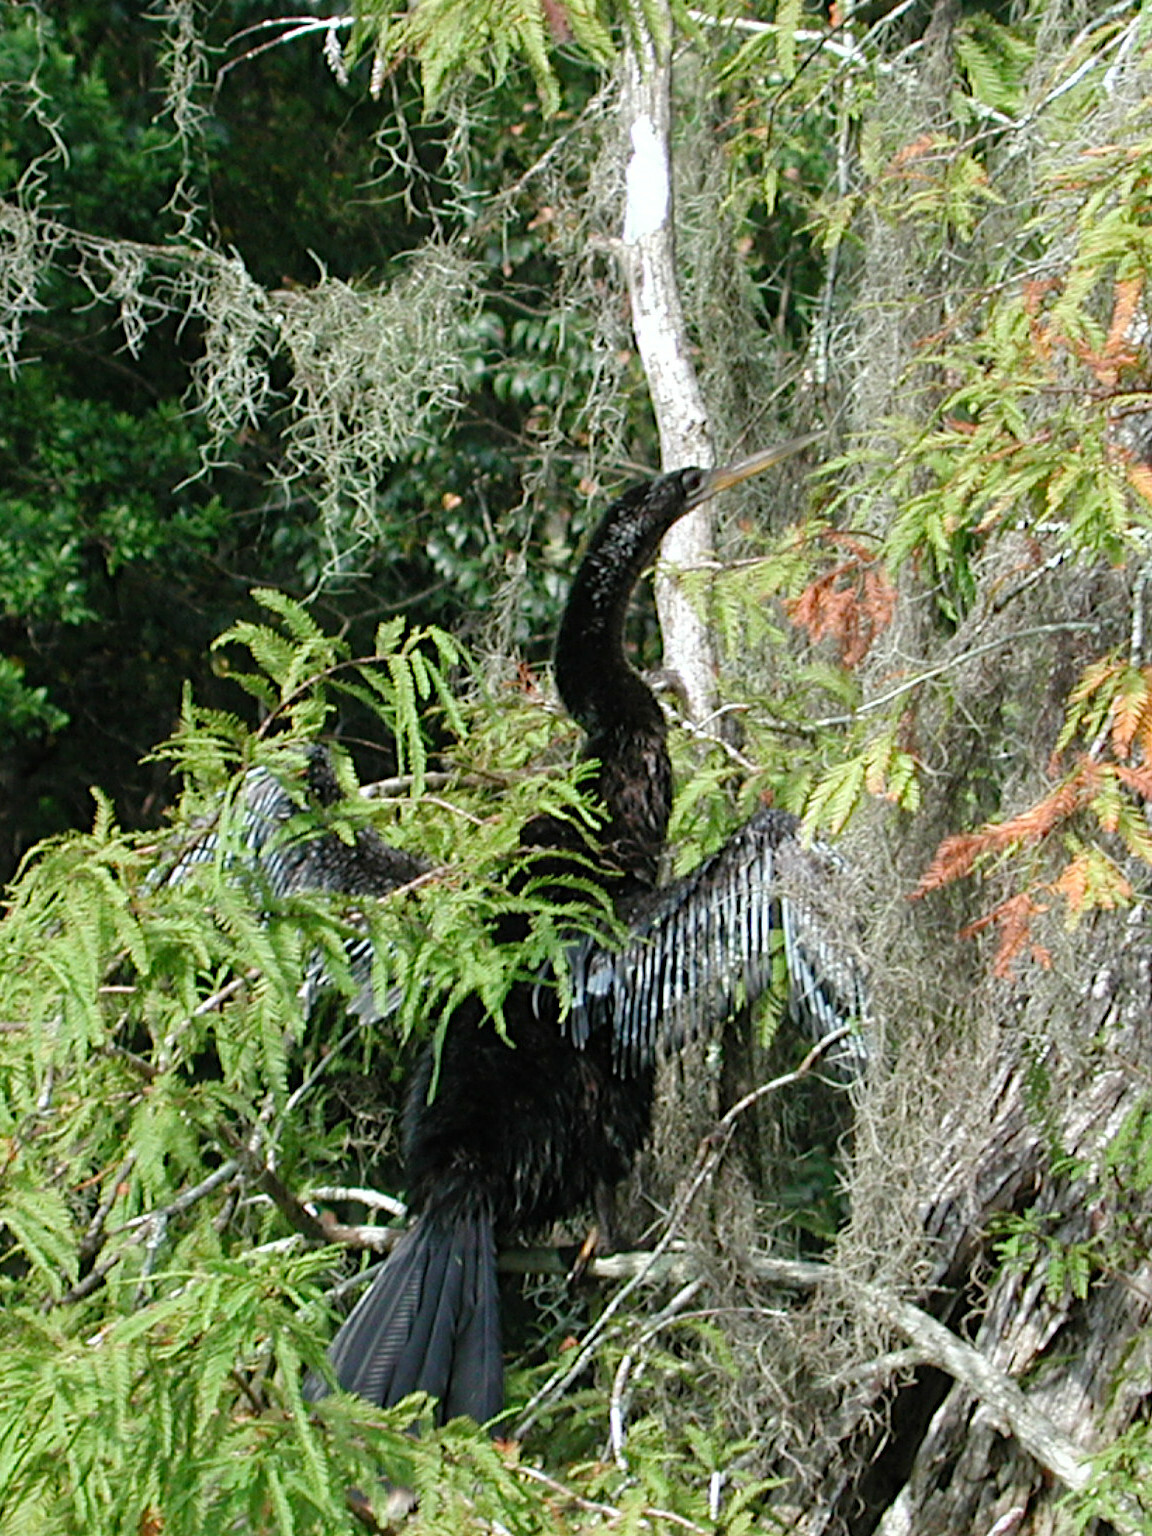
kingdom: Animalia
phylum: Chordata
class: Aves
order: Suliformes
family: Anhingidae
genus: Anhinga
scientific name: Anhinga anhinga
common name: Anhinga
